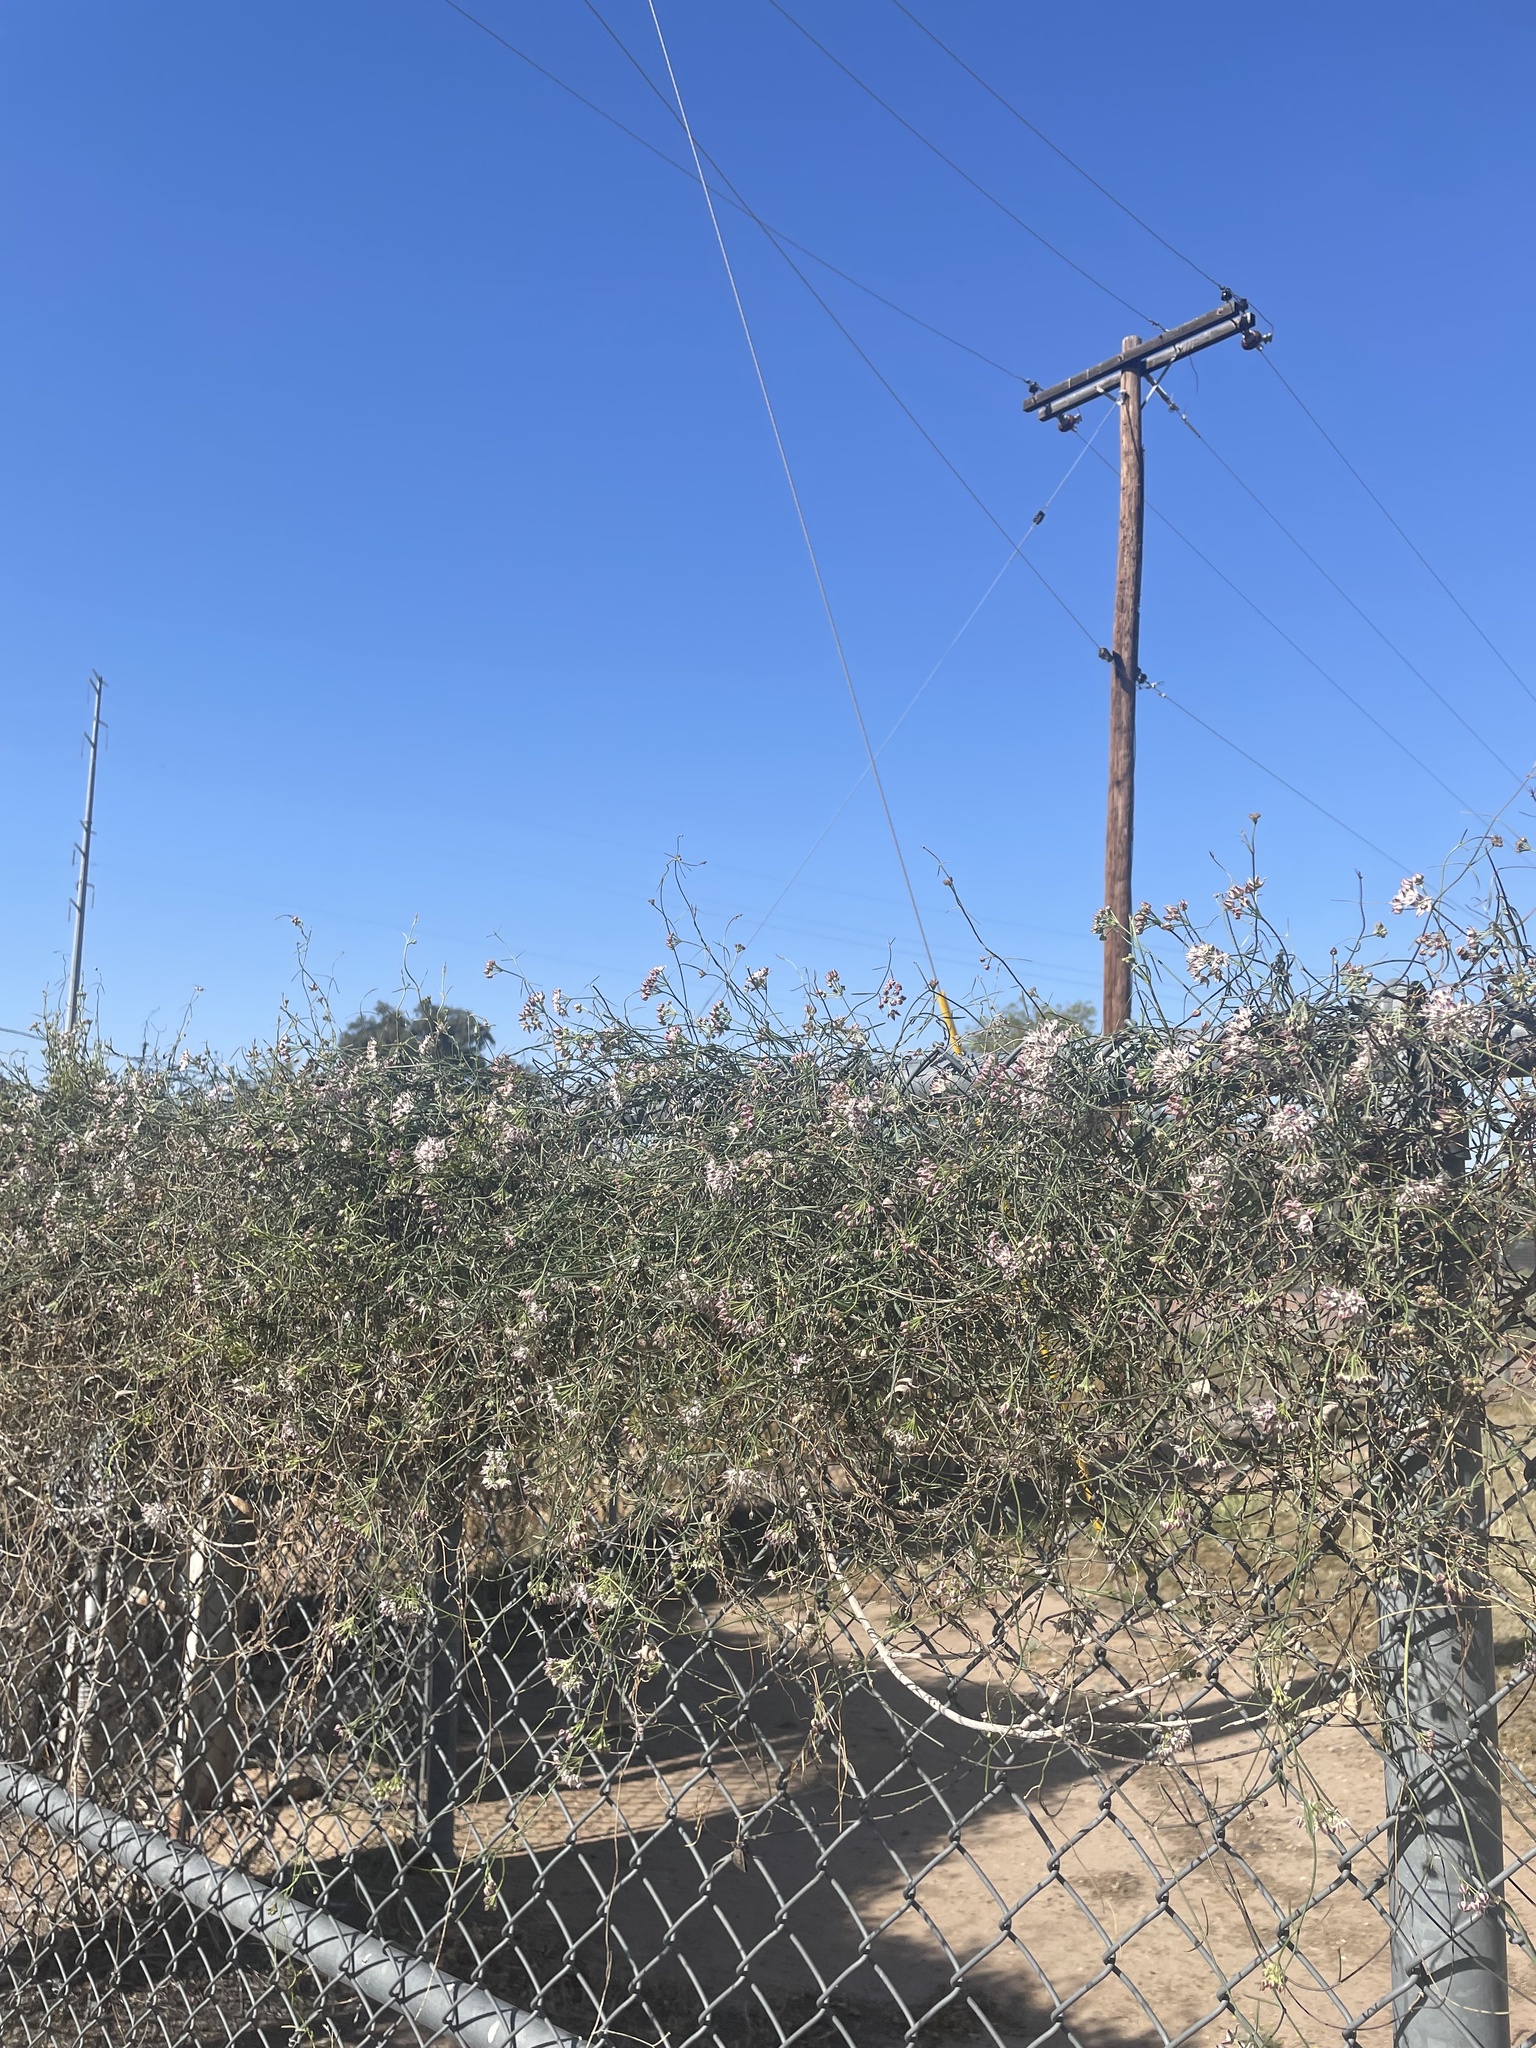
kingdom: Plantae
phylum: Tracheophyta
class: Magnoliopsida
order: Gentianales
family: Apocynaceae
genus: Funastrum
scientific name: Funastrum heterophyllum
